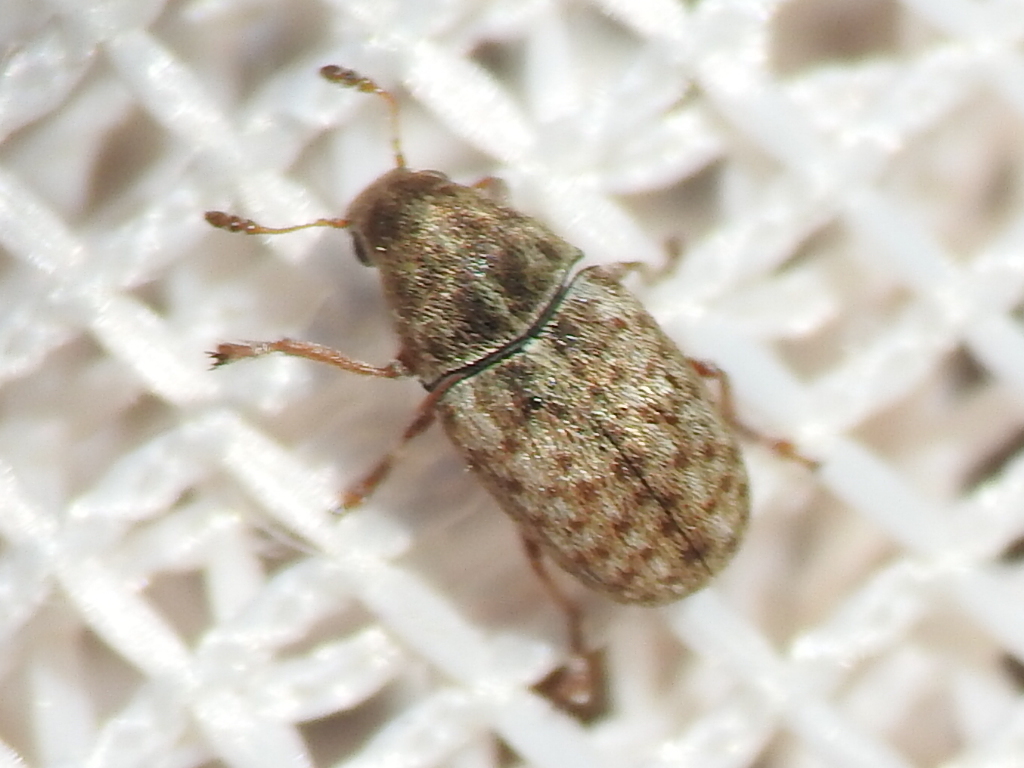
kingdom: Animalia
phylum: Arthropoda
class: Insecta
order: Coleoptera
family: Anthribidae
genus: Trigonorhinus
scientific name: Trigonorhinus limbatus
